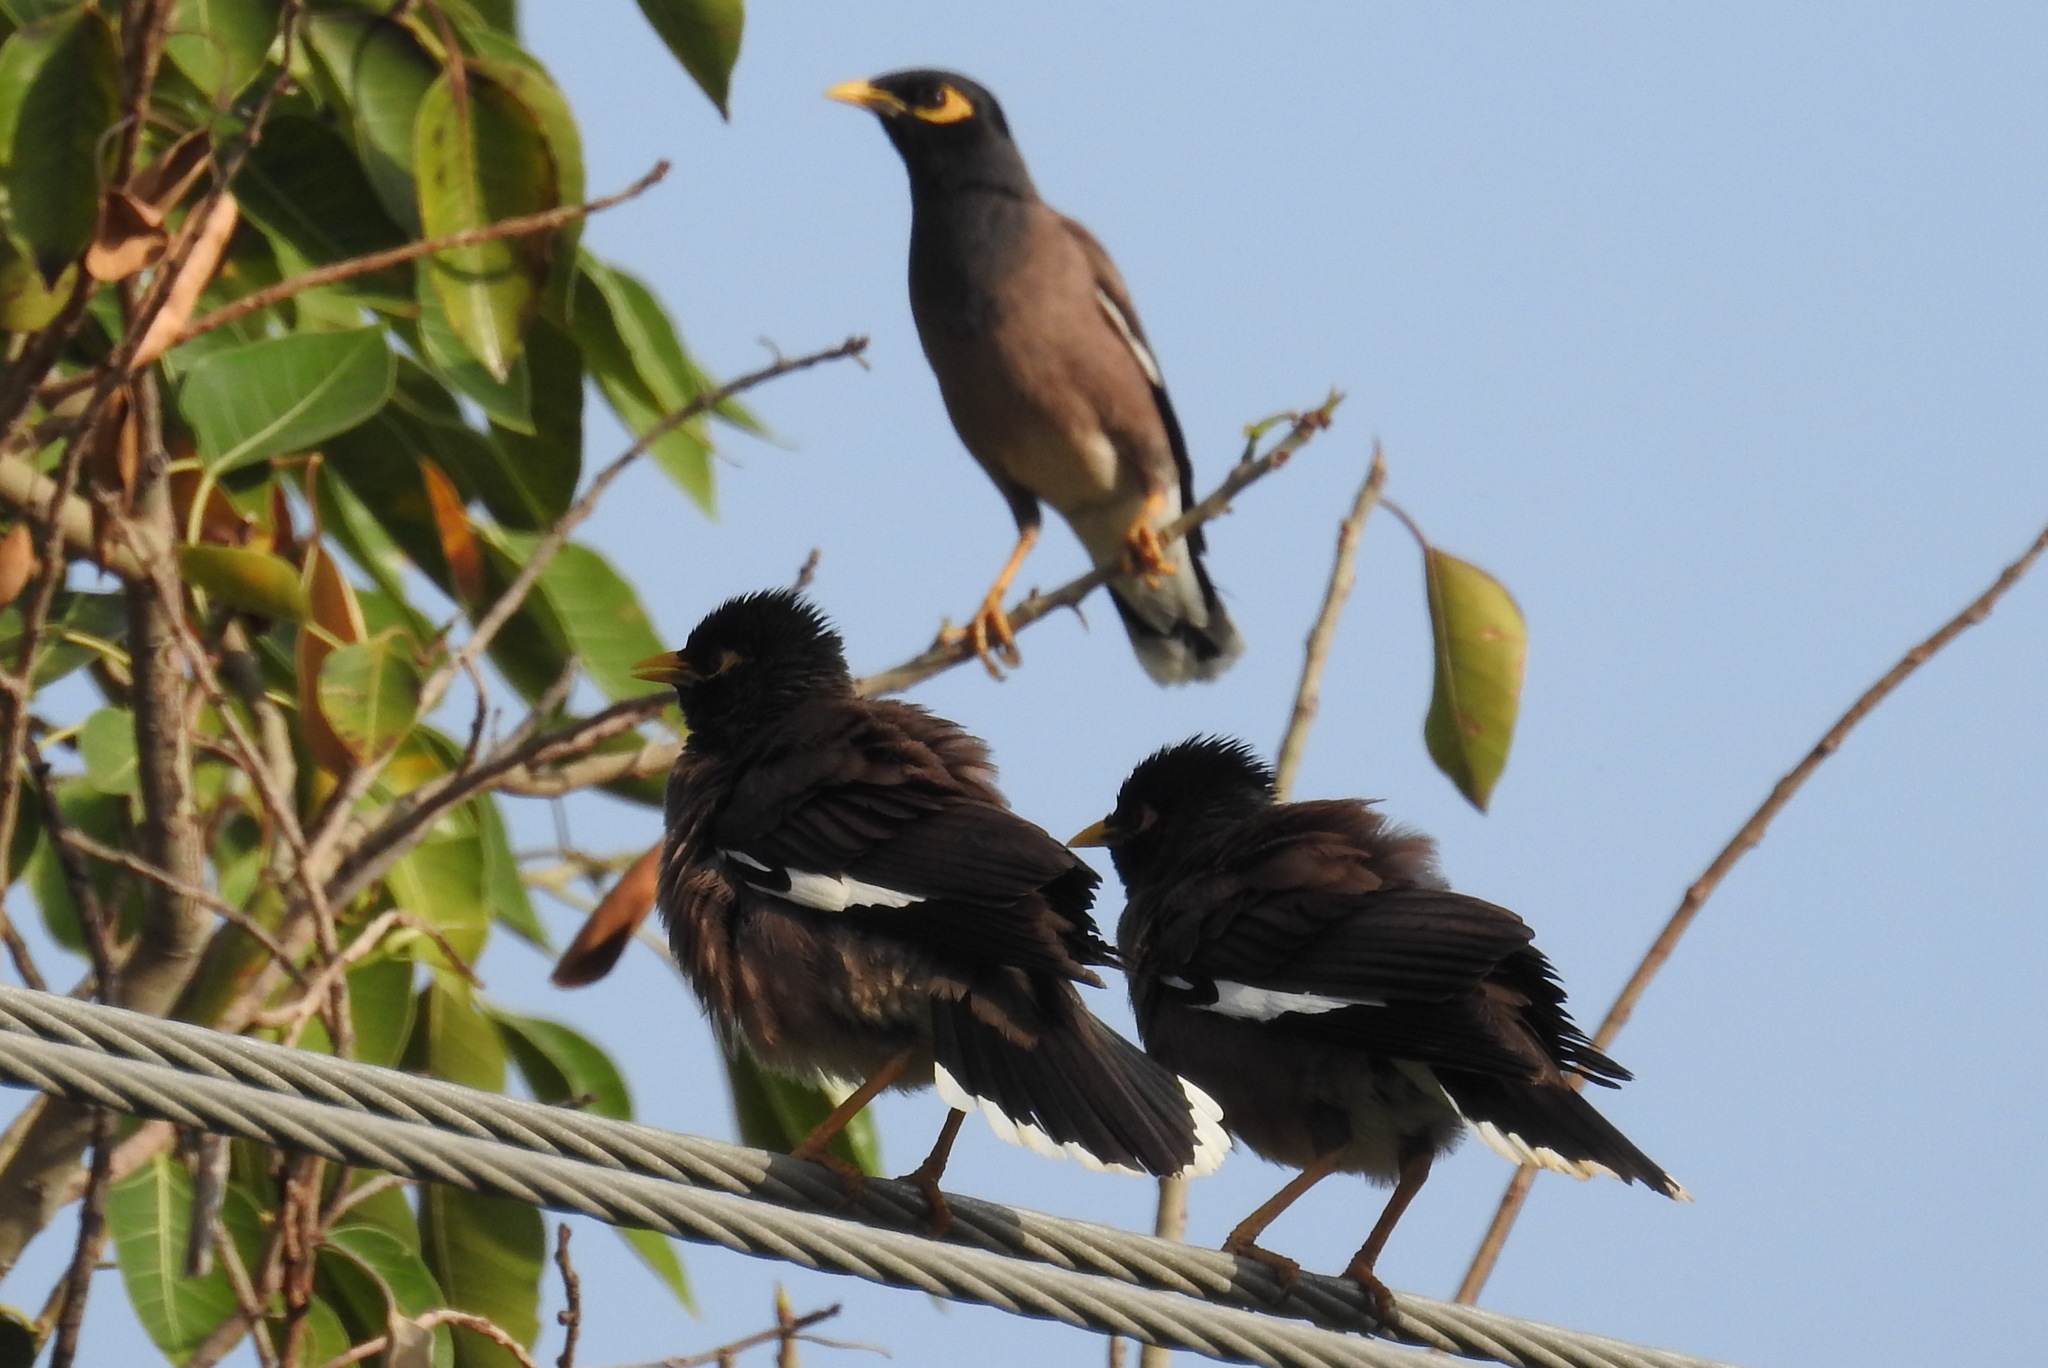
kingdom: Animalia
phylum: Chordata
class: Aves
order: Passeriformes
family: Sturnidae
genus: Acridotheres
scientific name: Acridotheres tristis
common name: Common myna
